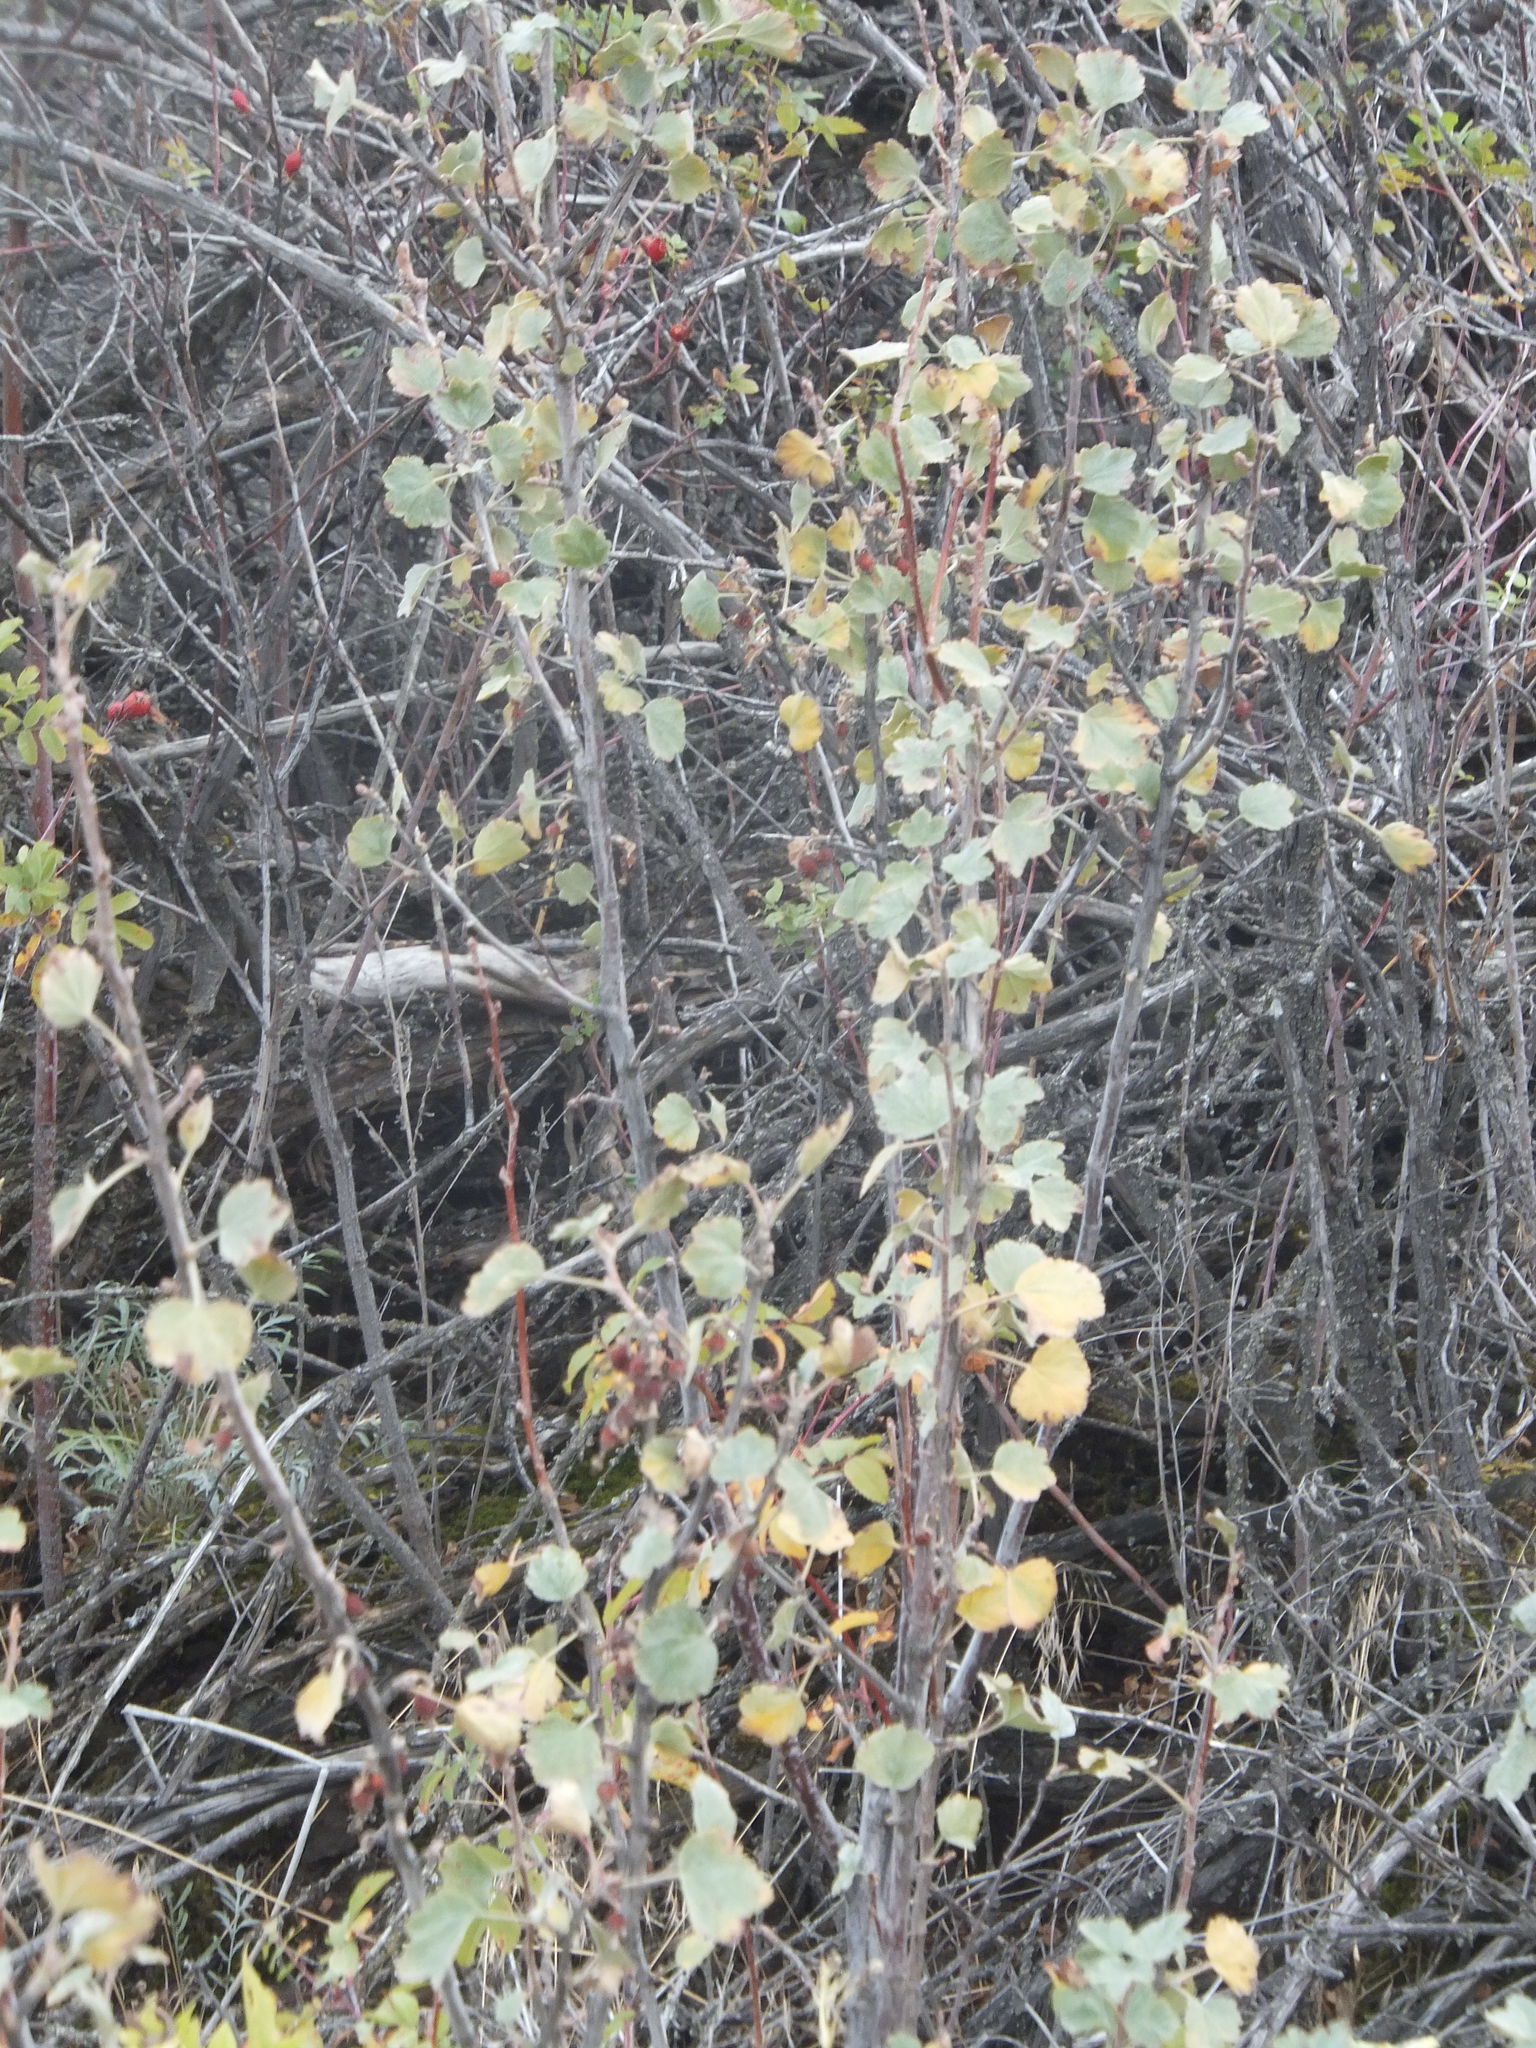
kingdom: Plantae
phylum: Tracheophyta
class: Magnoliopsida
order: Saxifragales
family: Grossulariaceae
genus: Ribes
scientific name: Ribes cereum
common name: Wax currant
